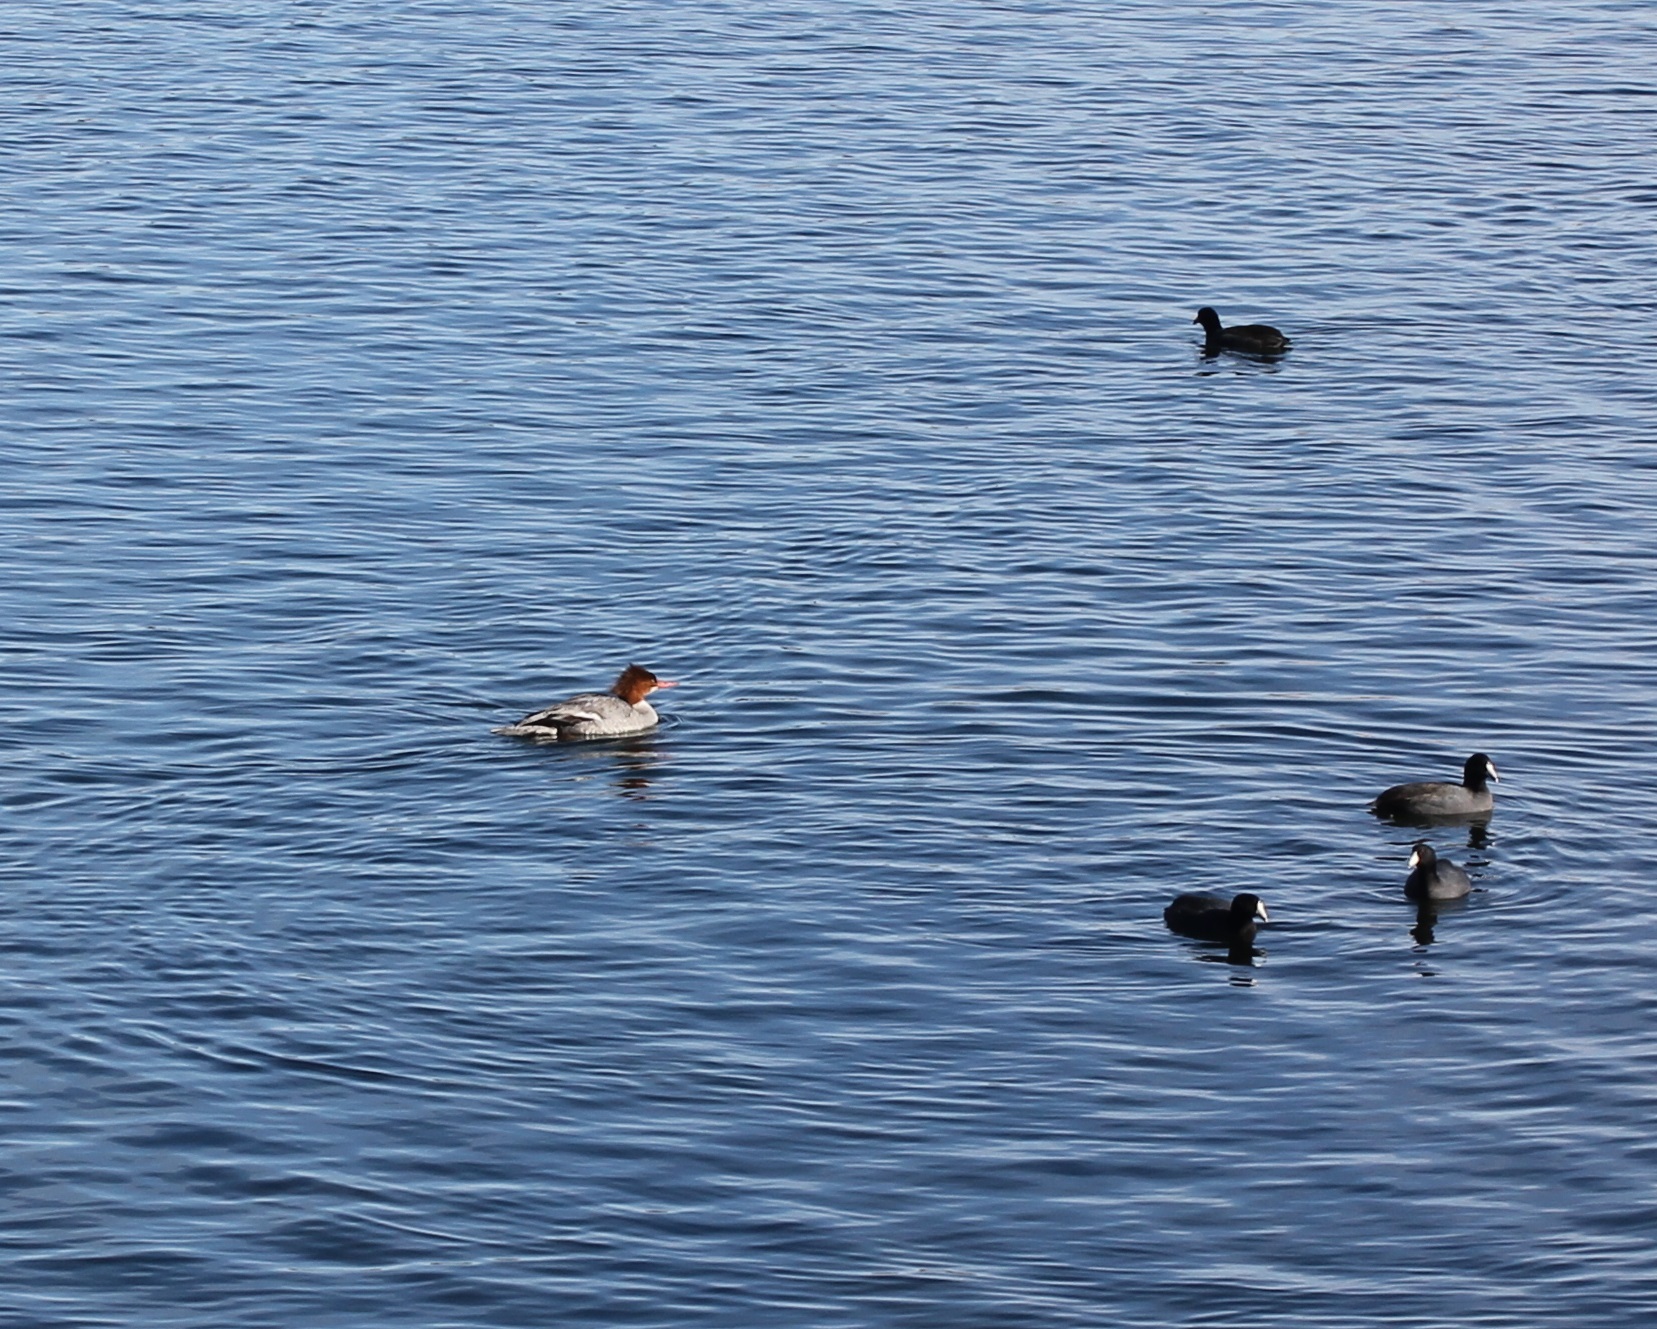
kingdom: Animalia
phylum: Chordata
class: Aves
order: Anseriformes
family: Anatidae
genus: Mergus
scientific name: Mergus merganser
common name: Common merganser
